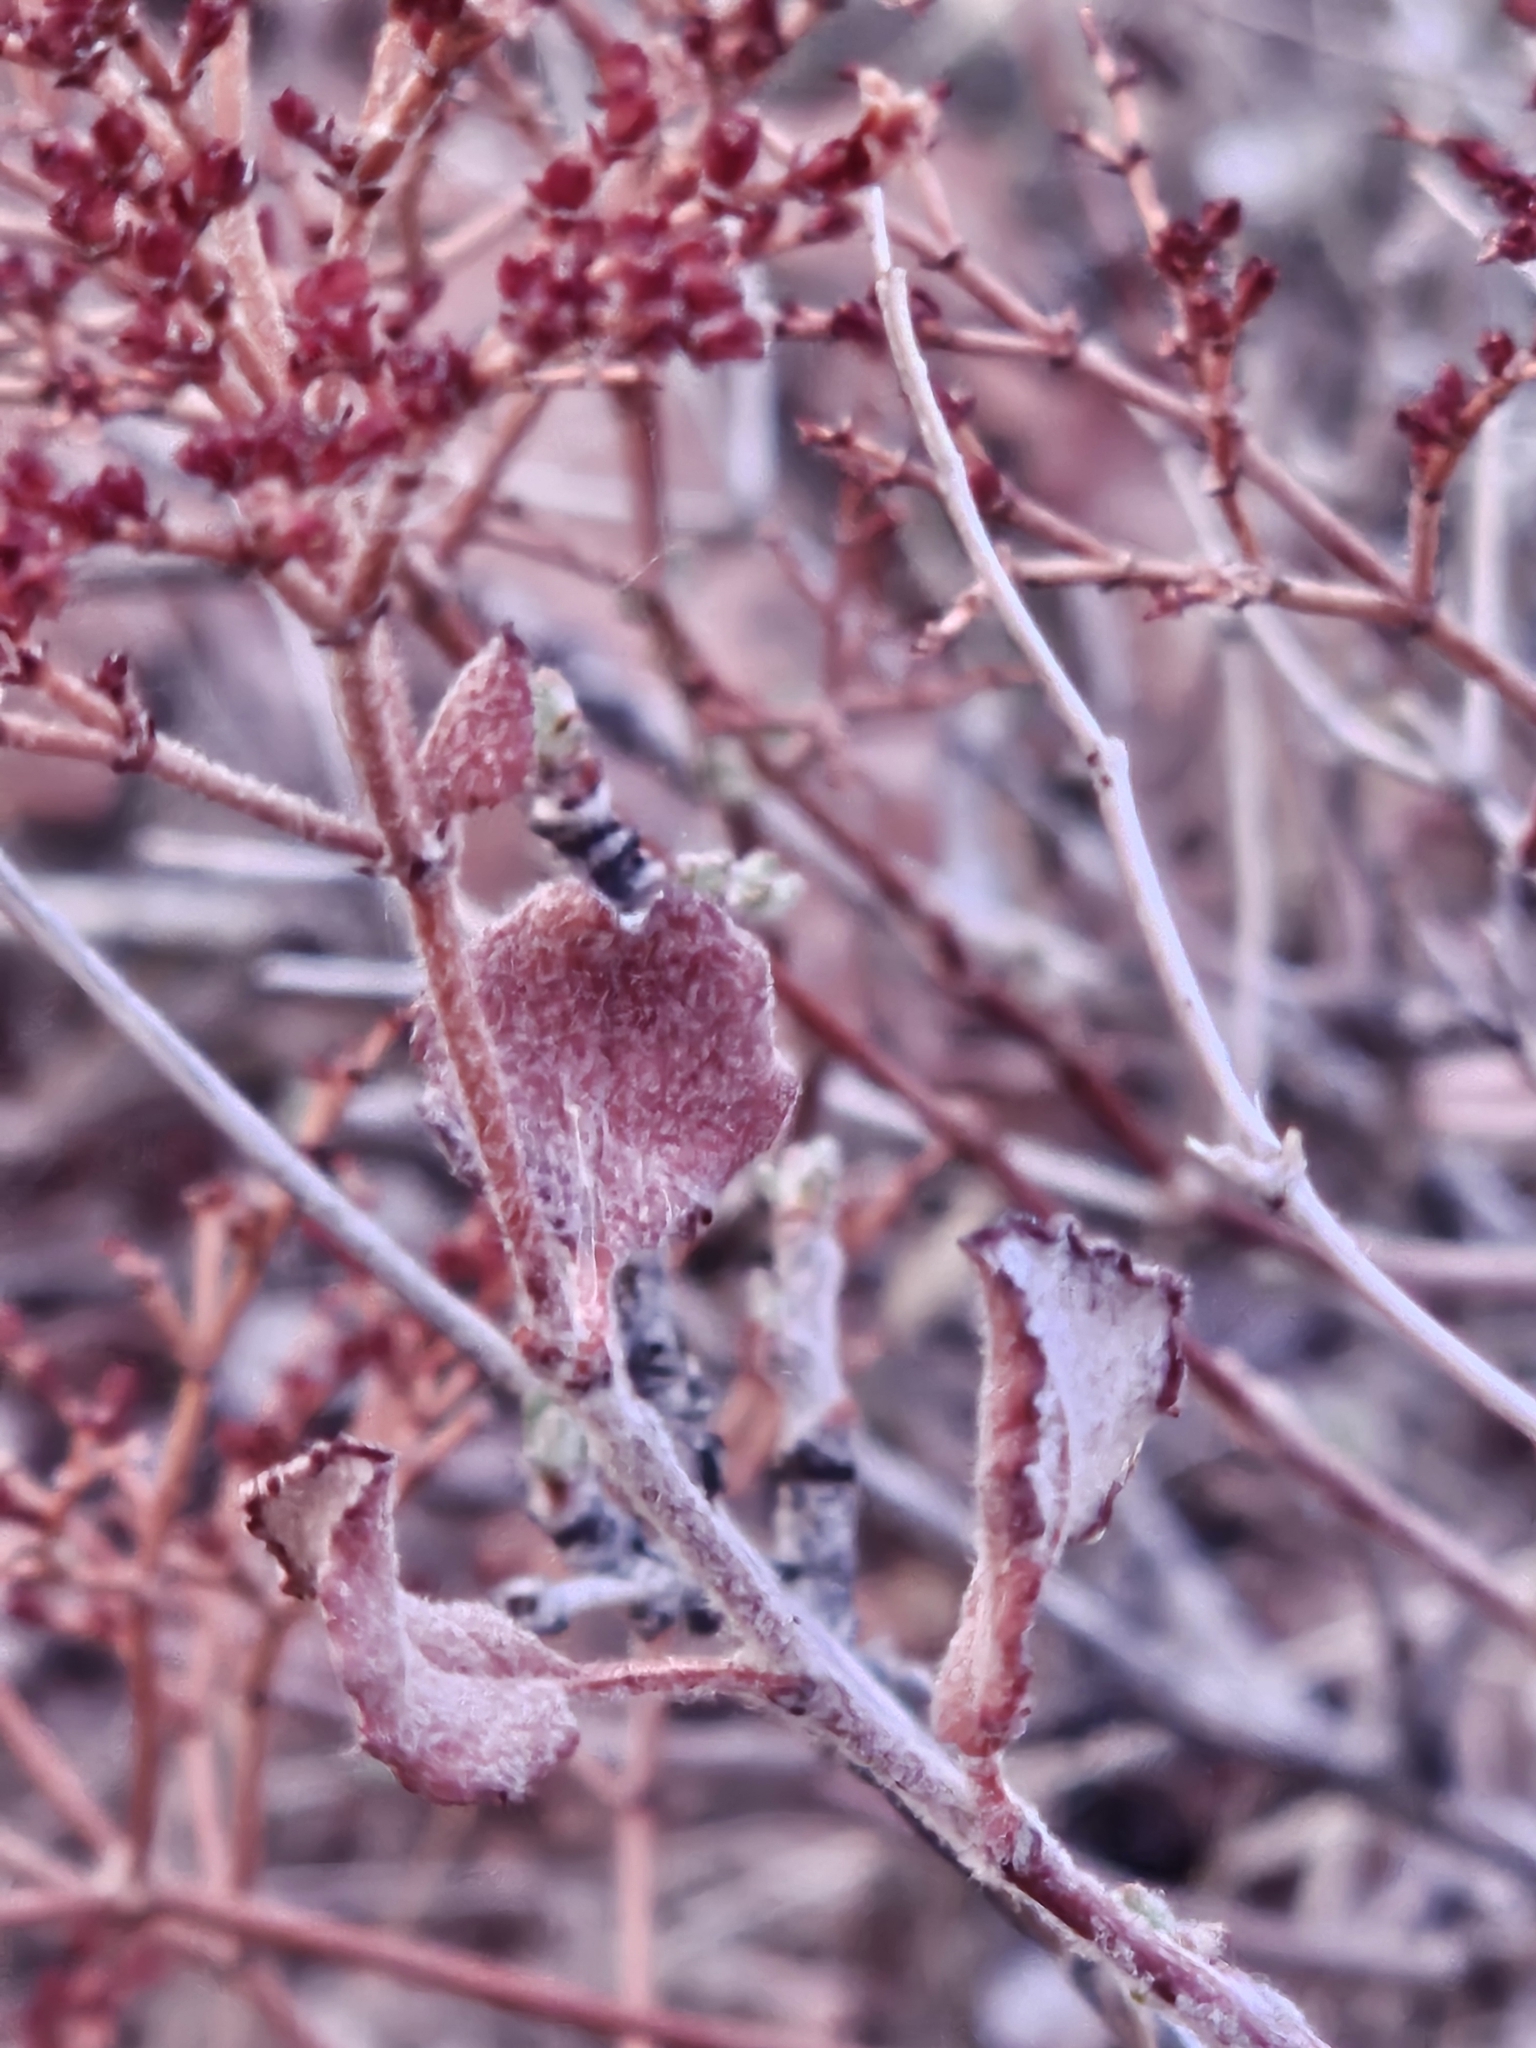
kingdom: Plantae
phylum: Tracheophyta
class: Magnoliopsida
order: Caryophyllales
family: Polygonaceae
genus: Eriogonum
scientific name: Eriogonum corymbosum
